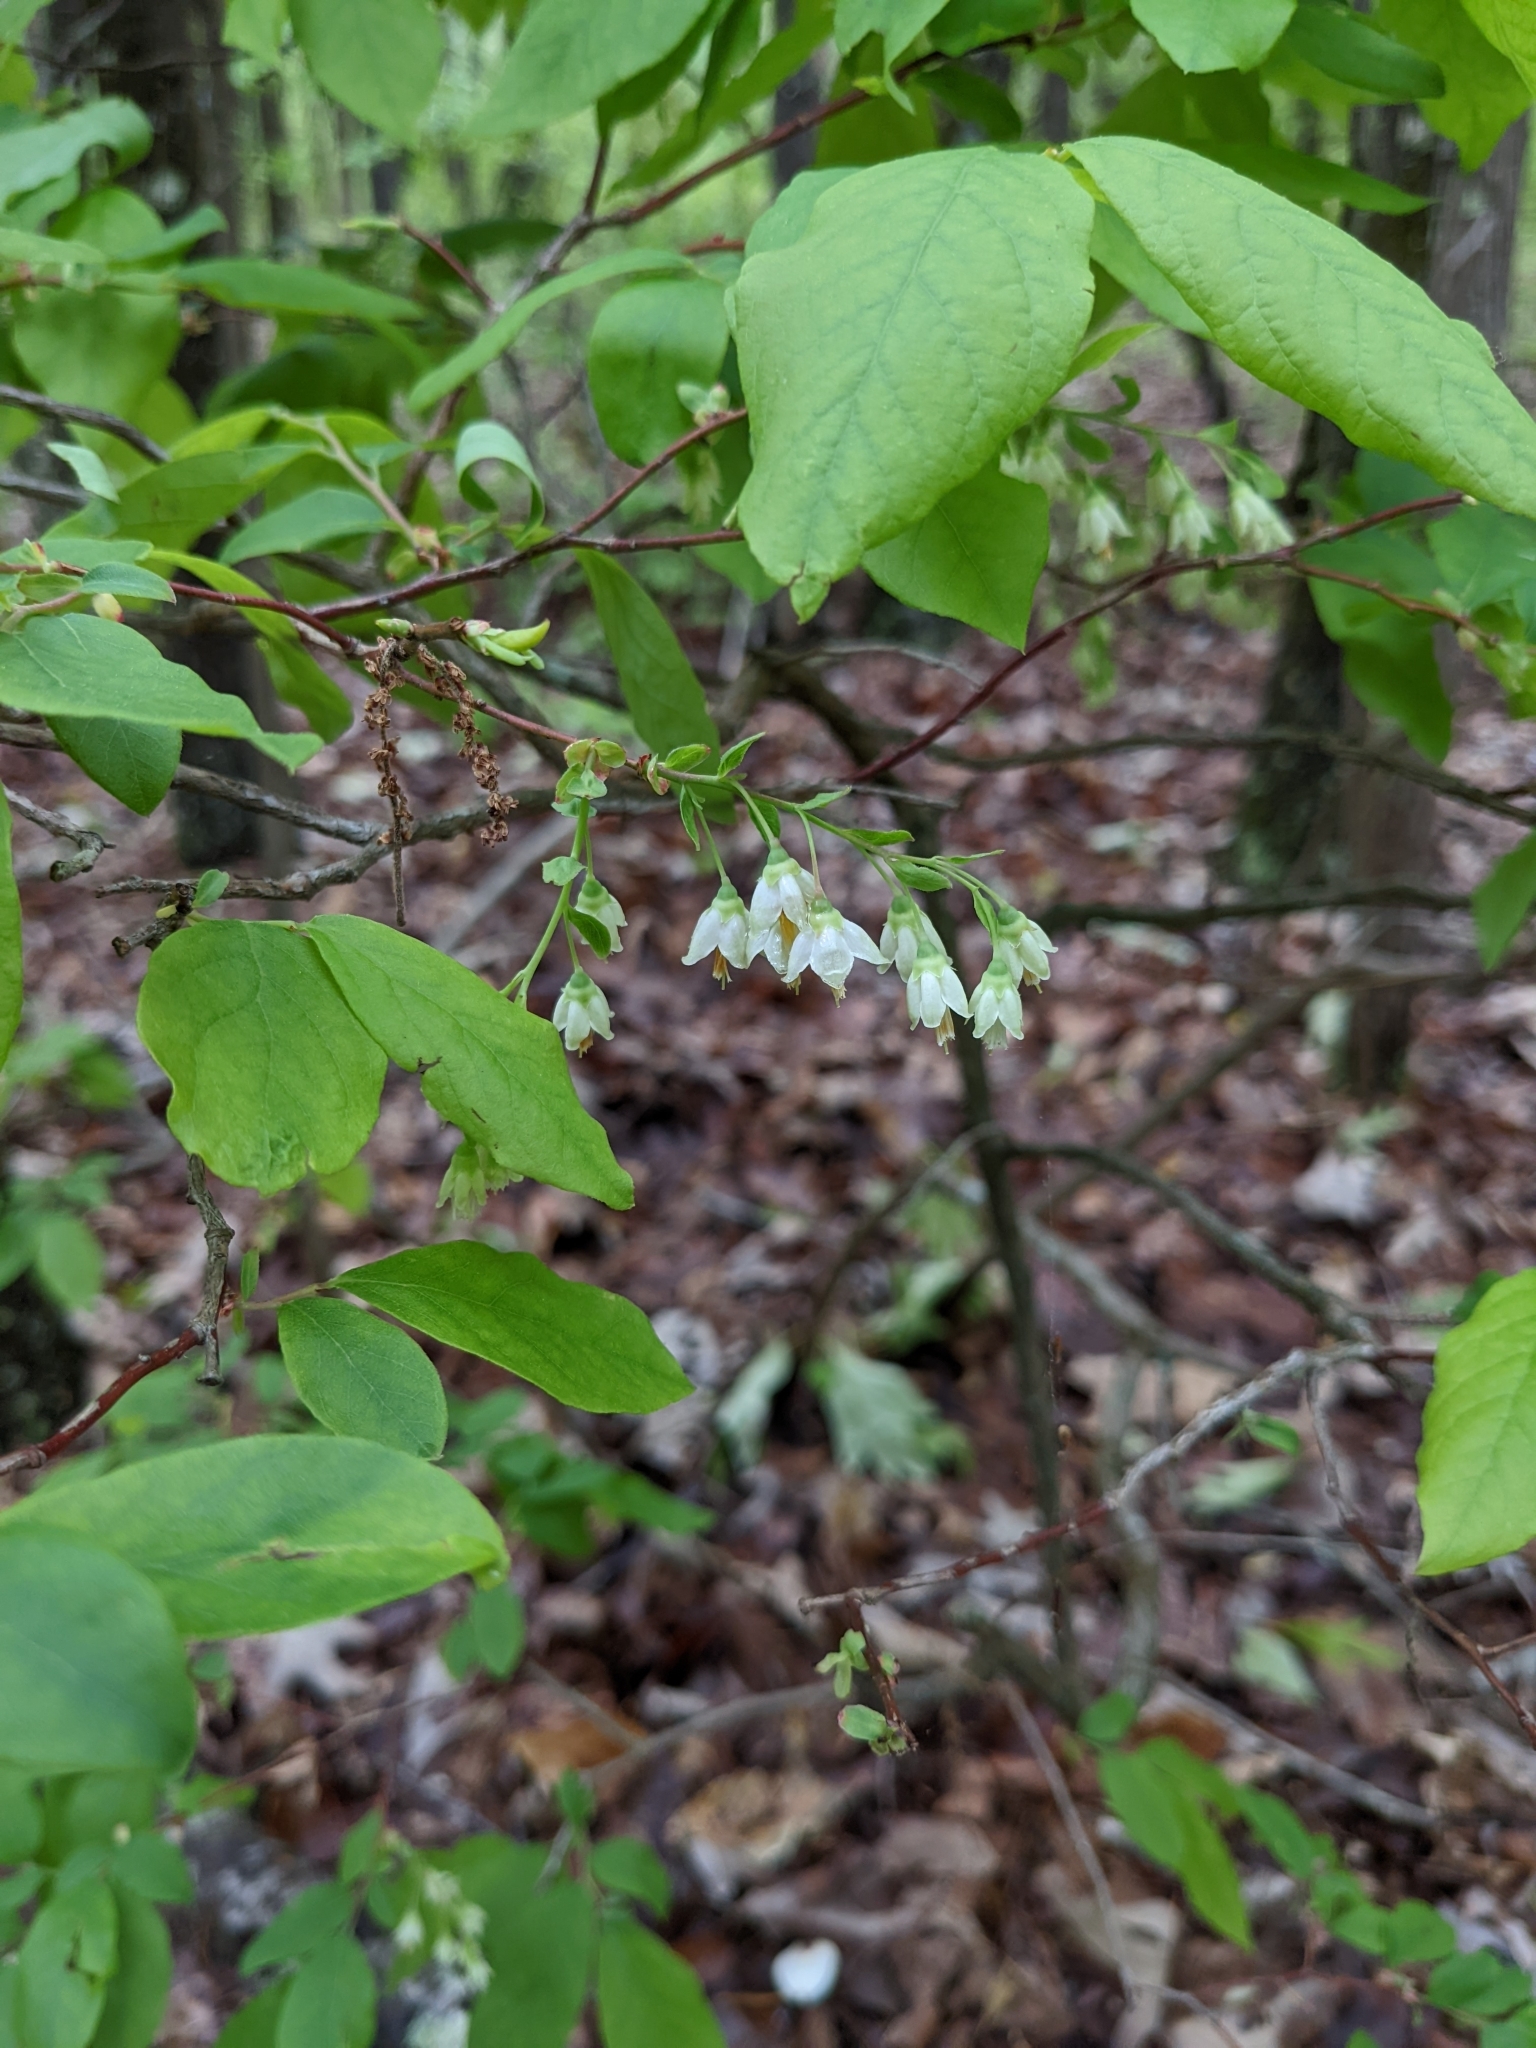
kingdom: Plantae
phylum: Tracheophyta
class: Magnoliopsida
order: Ericales
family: Ericaceae
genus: Vaccinium
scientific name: Vaccinium stamineum
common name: Deerberry
